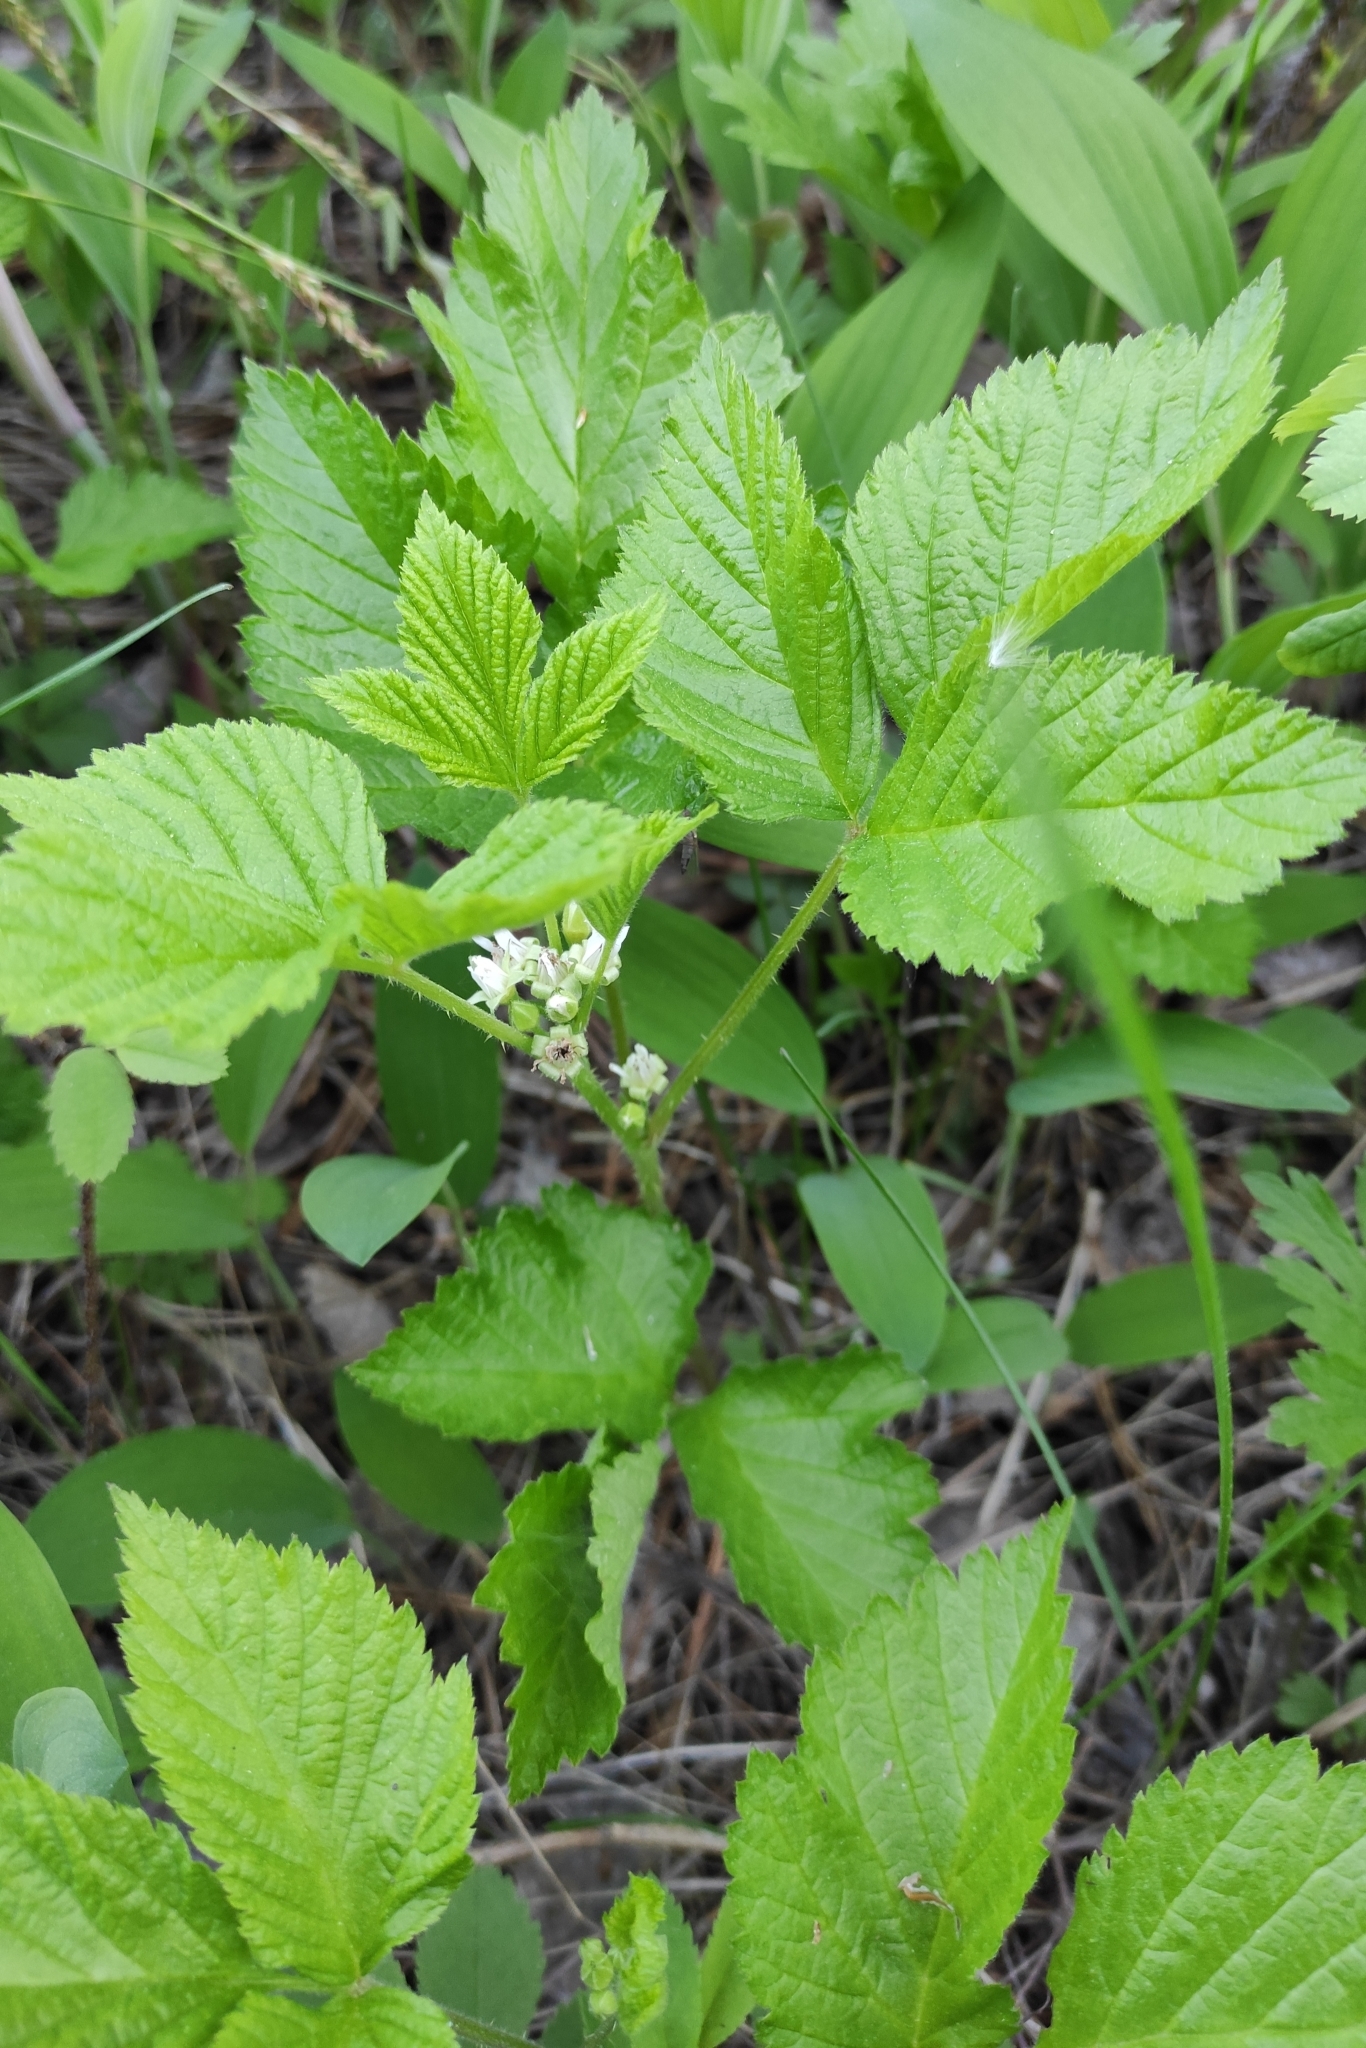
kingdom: Plantae
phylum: Tracheophyta
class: Magnoliopsida
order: Rosales
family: Rosaceae
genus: Rubus
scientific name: Rubus saxatilis
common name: Stone bramble
